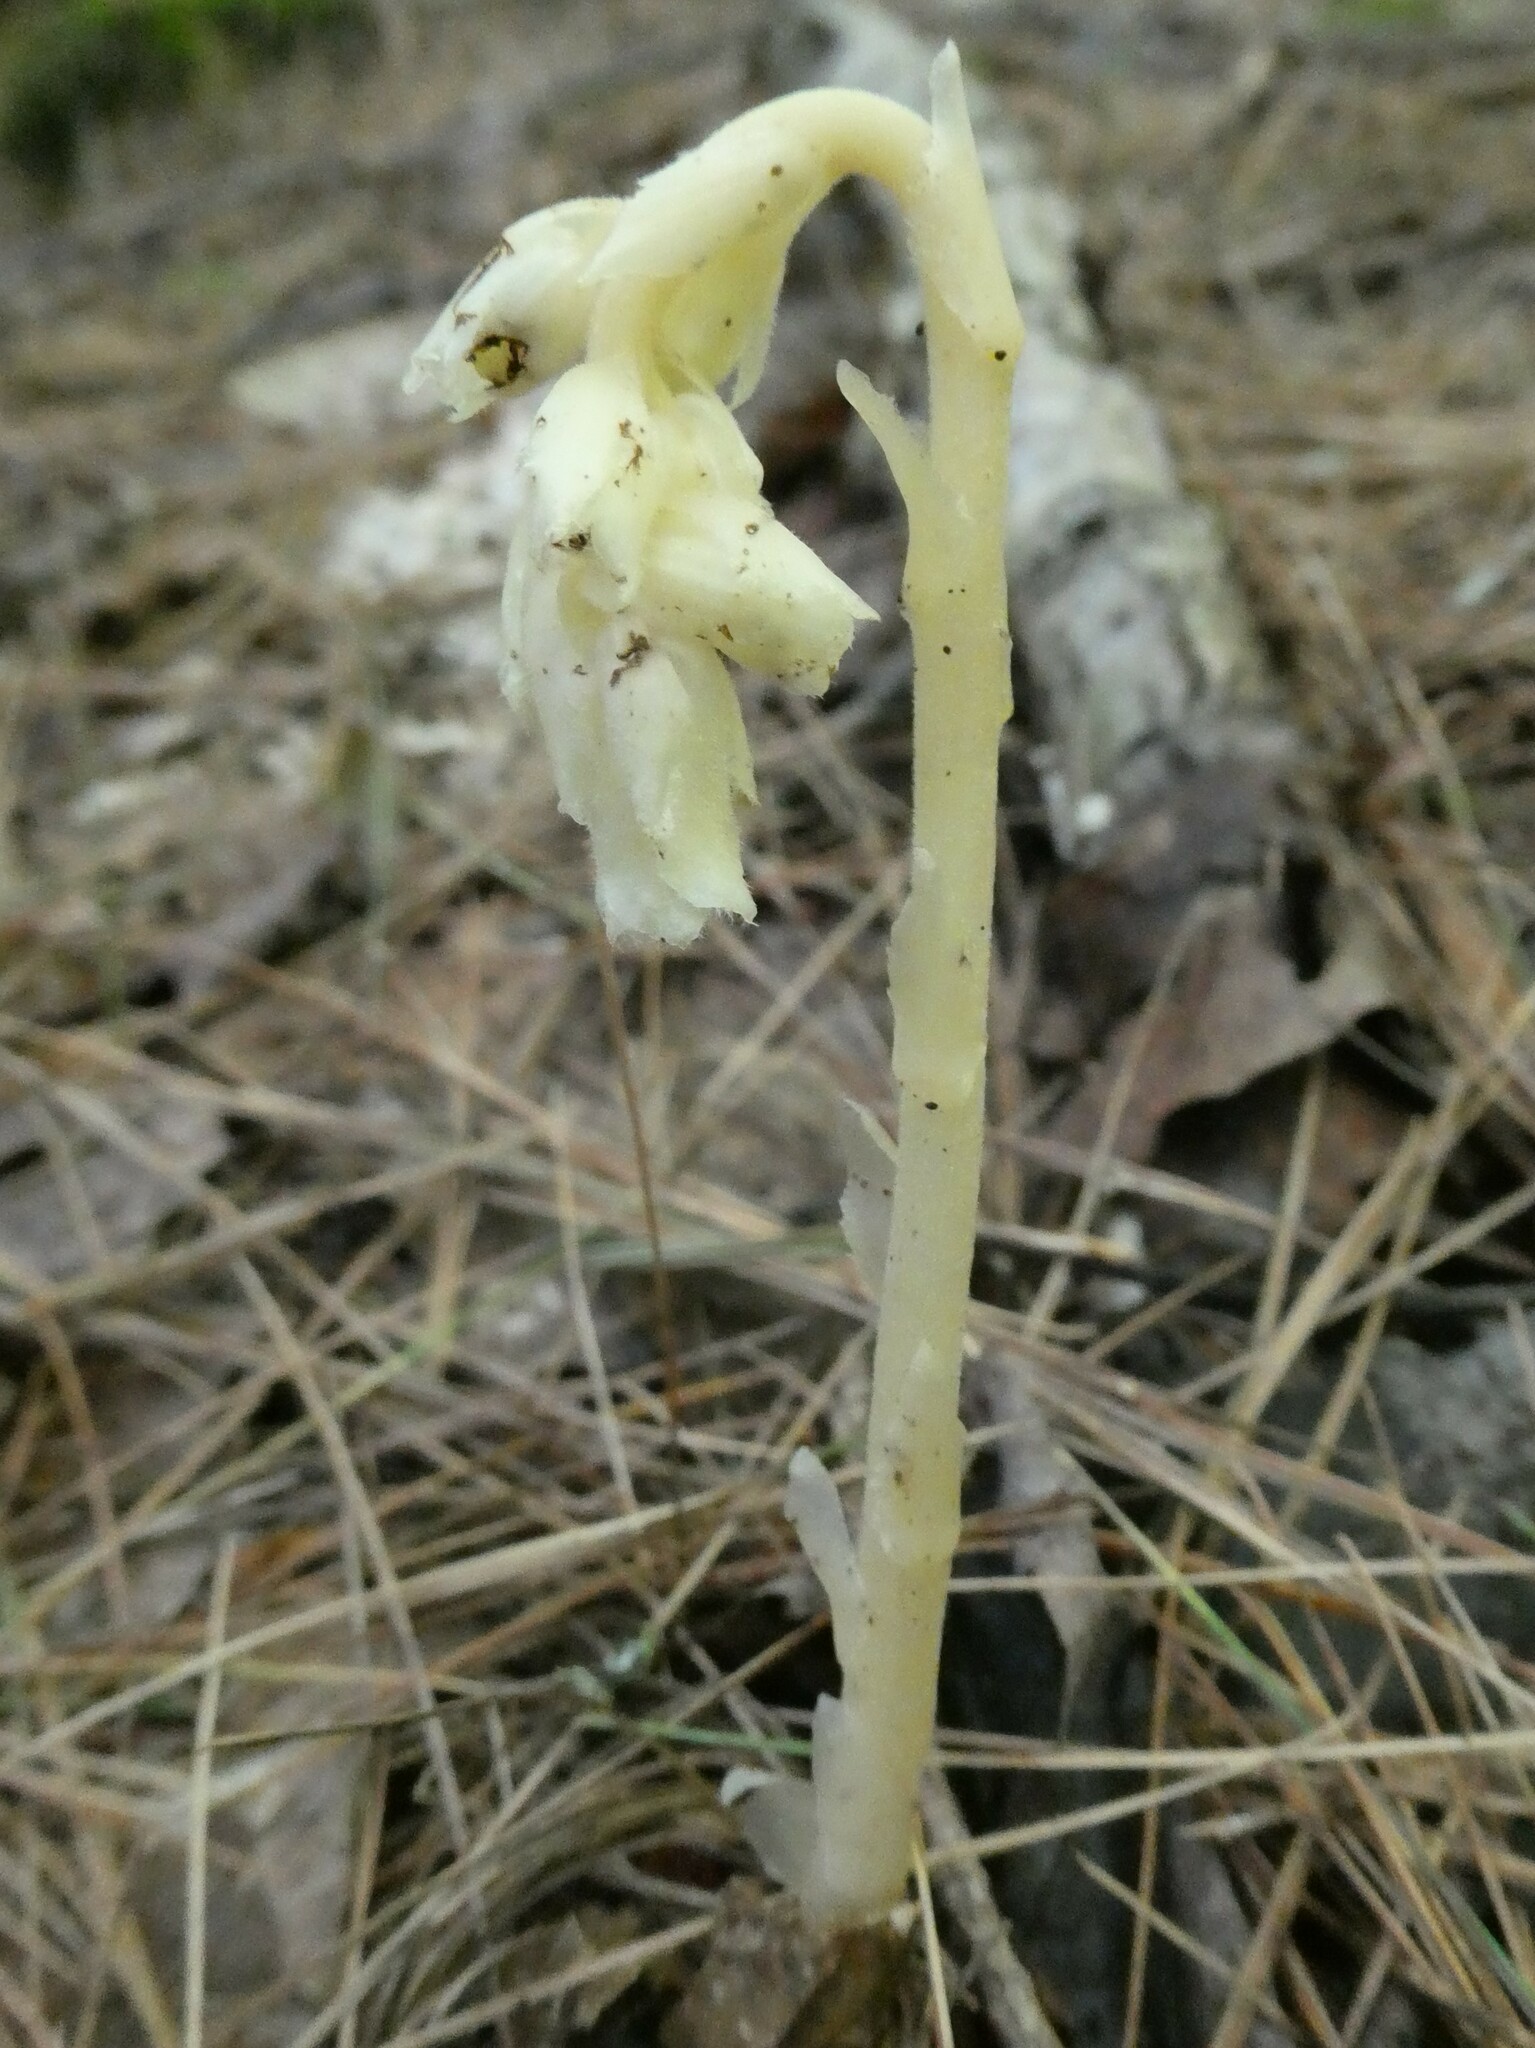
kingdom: Plantae
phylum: Tracheophyta
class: Magnoliopsida
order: Ericales
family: Ericaceae
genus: Hypopitys
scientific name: Hypopitys monotropa
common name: Yellow bird's-nest
